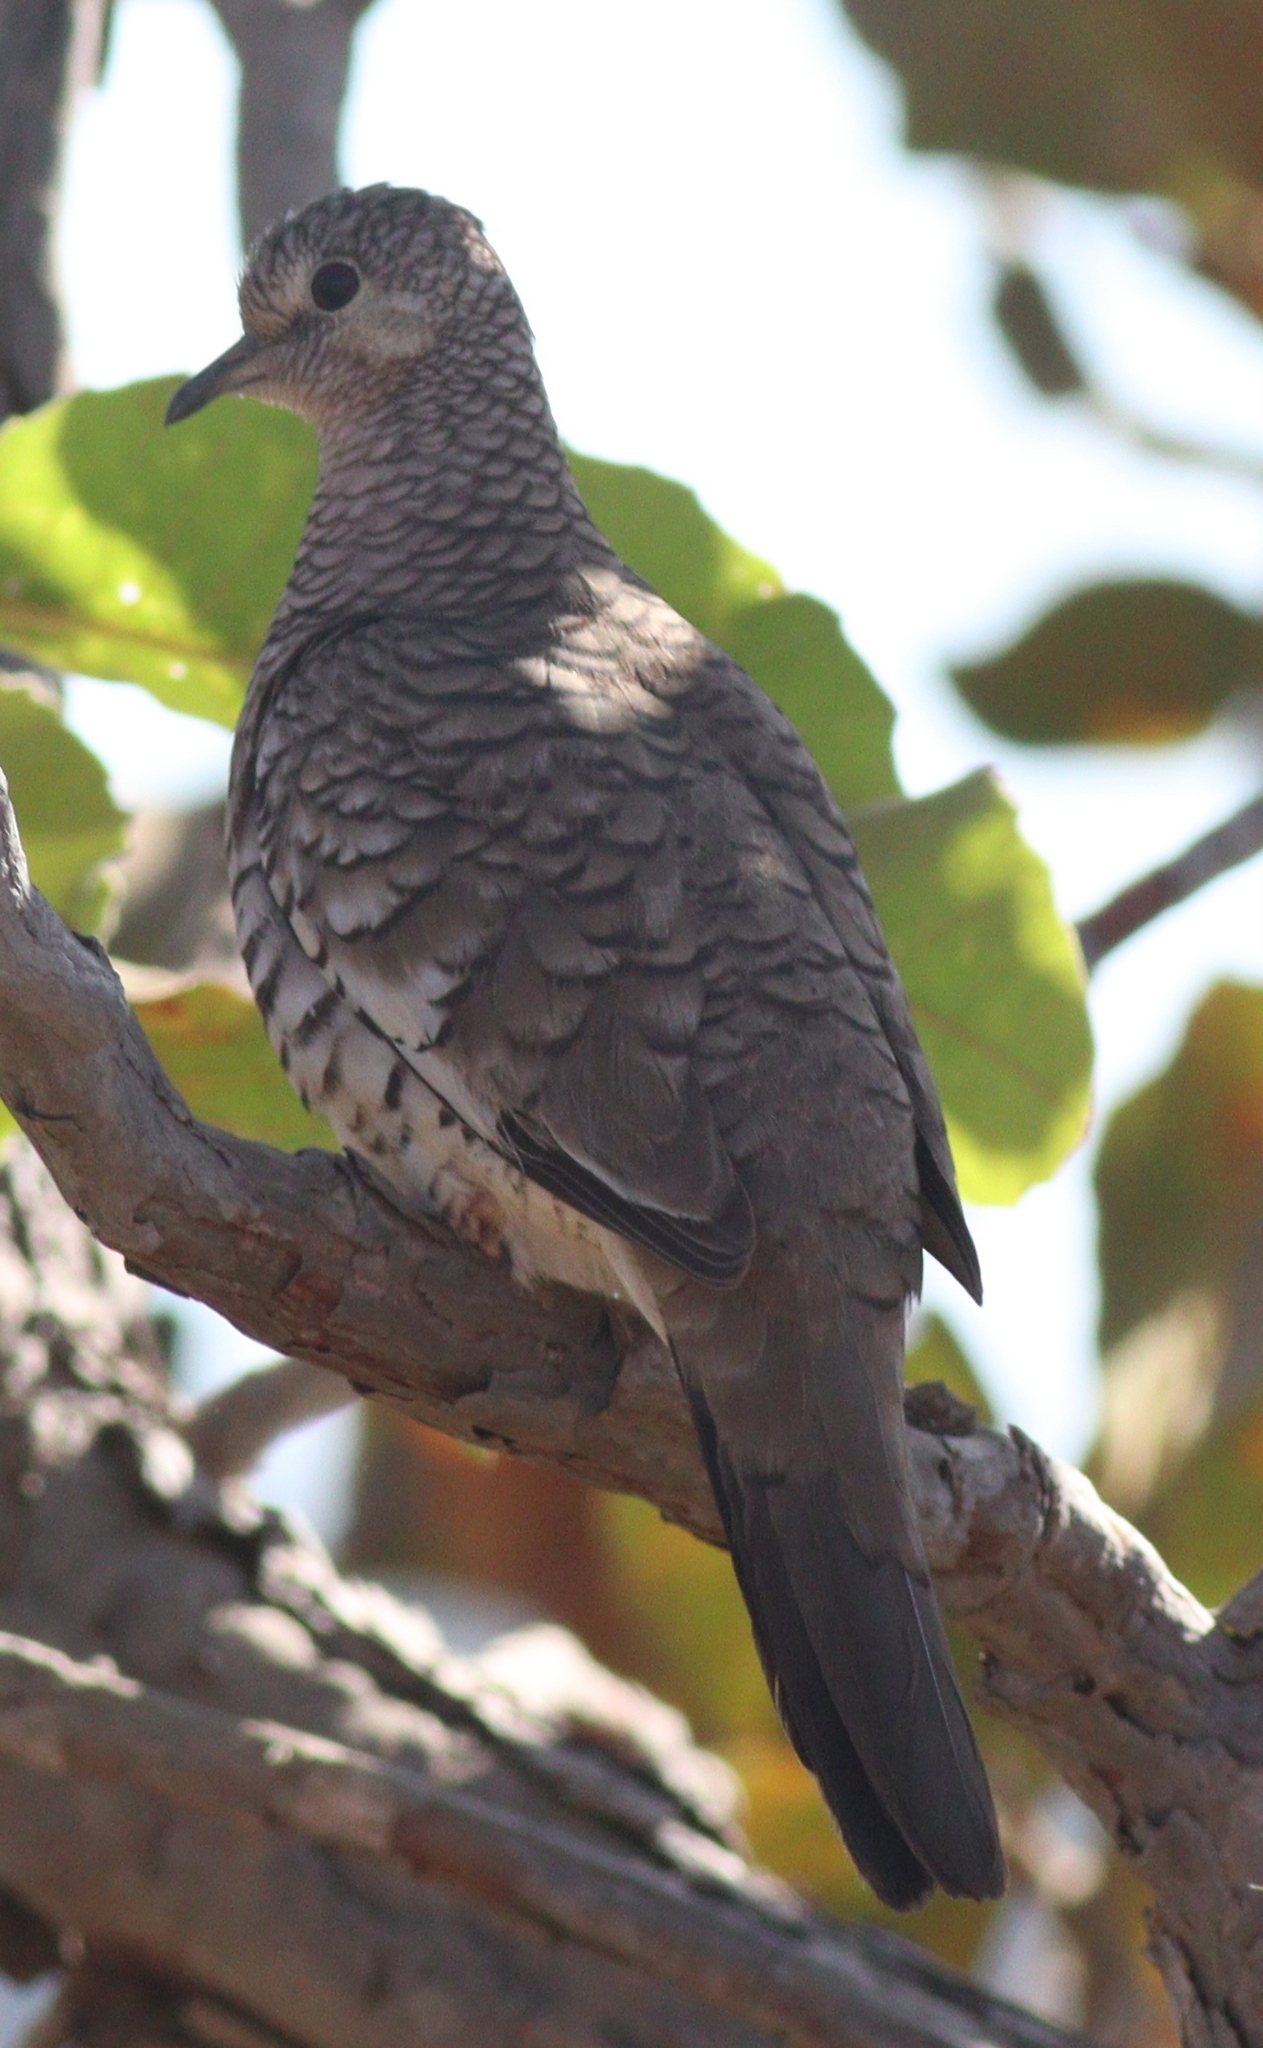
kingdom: Animalia
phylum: Chordata
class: Aves
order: Columbiformes
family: Columbidae
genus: Columbina
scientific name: Columbina squammata
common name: Scaled dove
